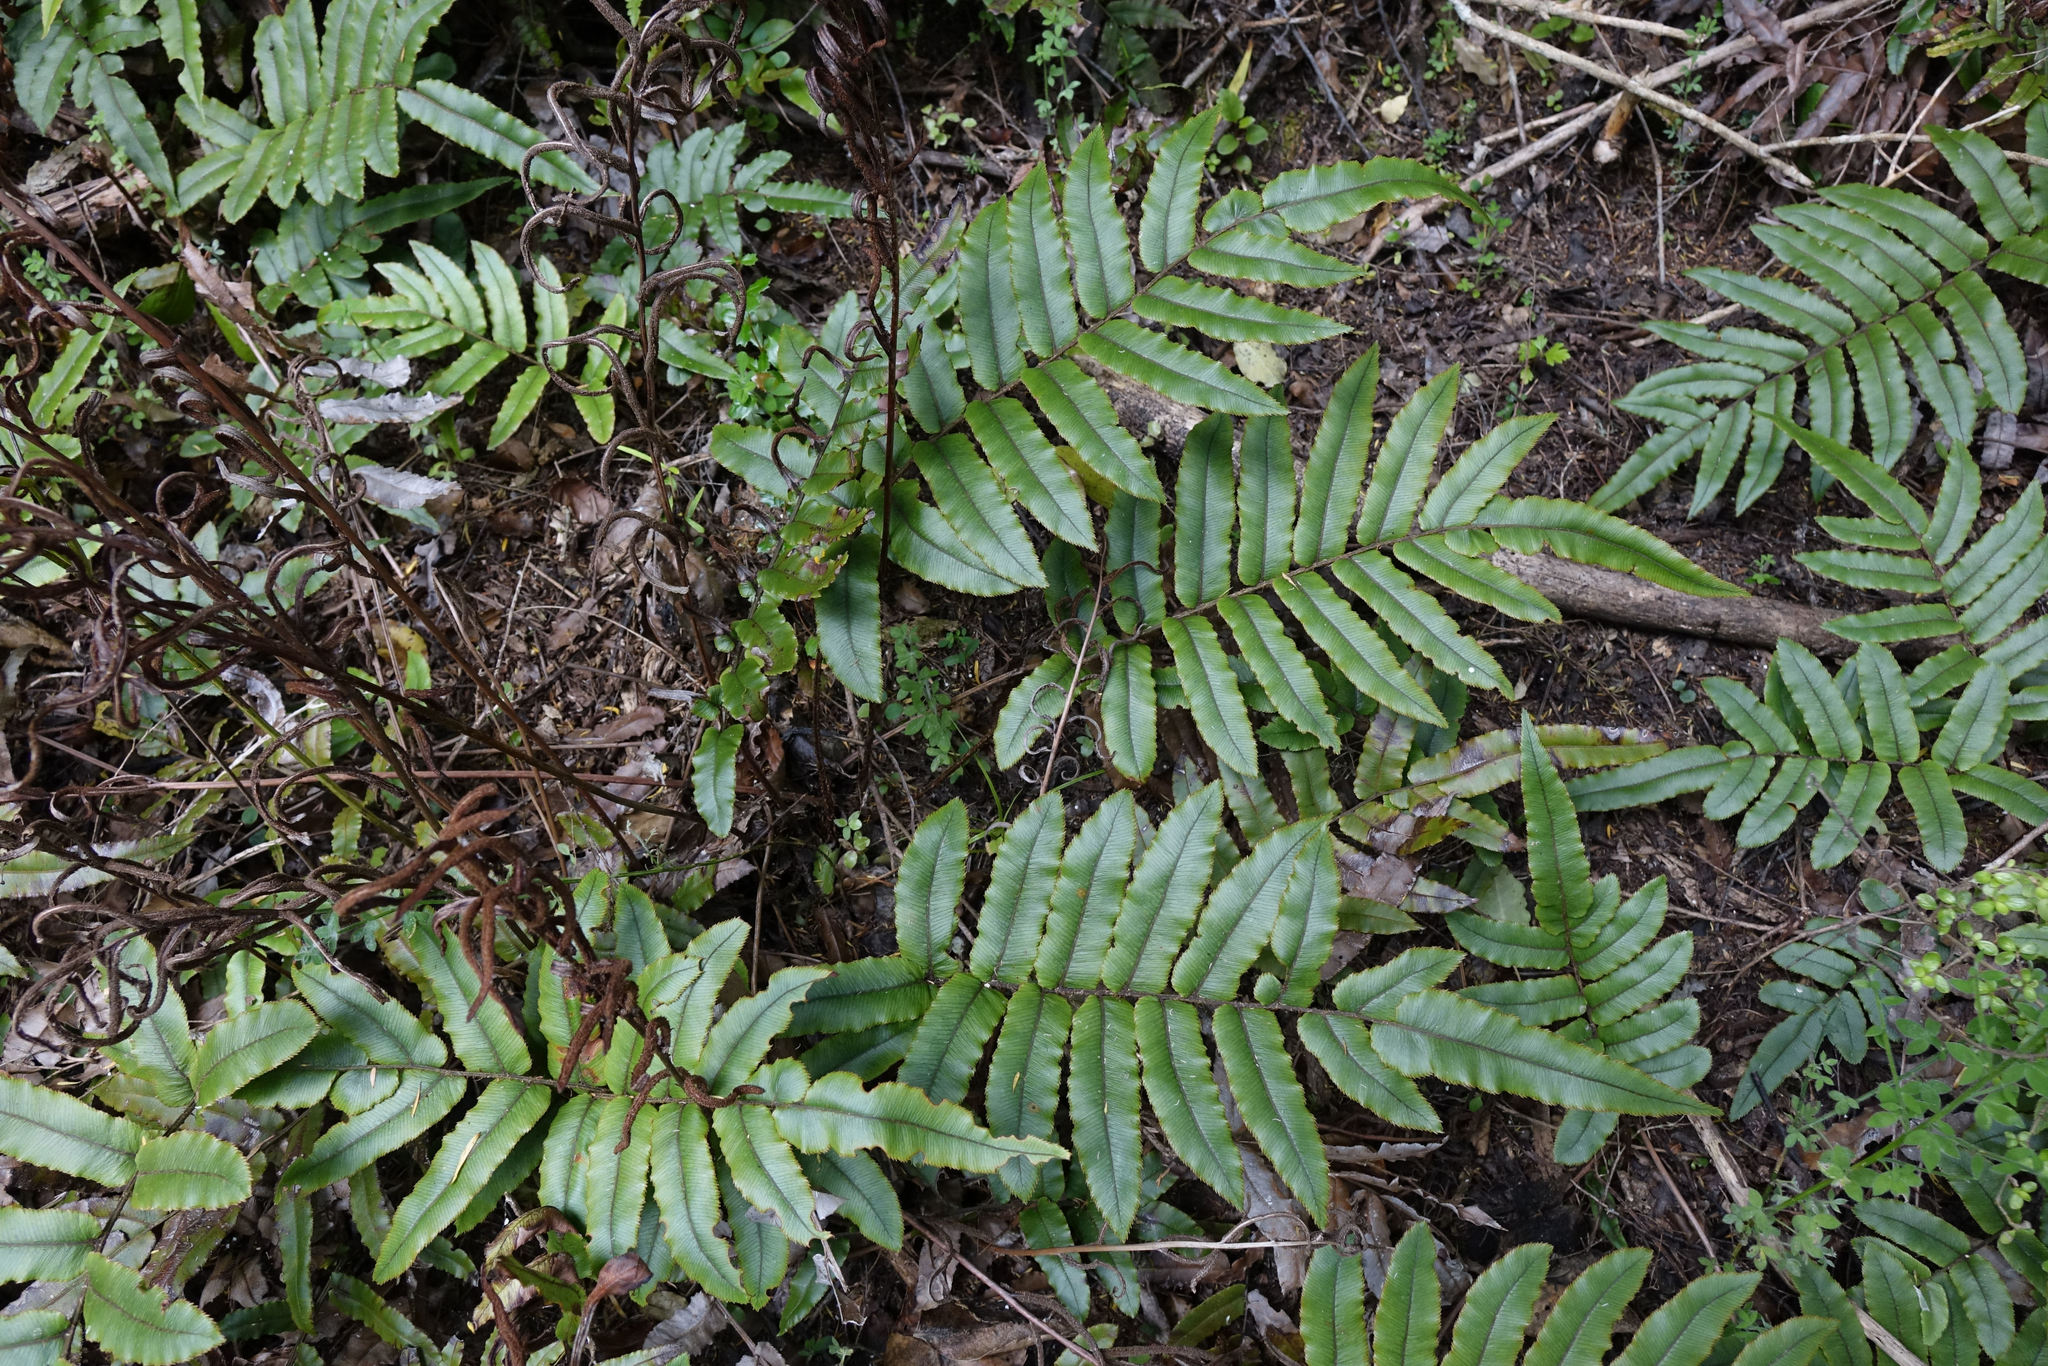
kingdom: Plantae
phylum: Tracheophyta
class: Polypodiopsida
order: Polypodiales
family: Blechnaceae
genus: Parablechnum
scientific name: Parablechnum procerum
